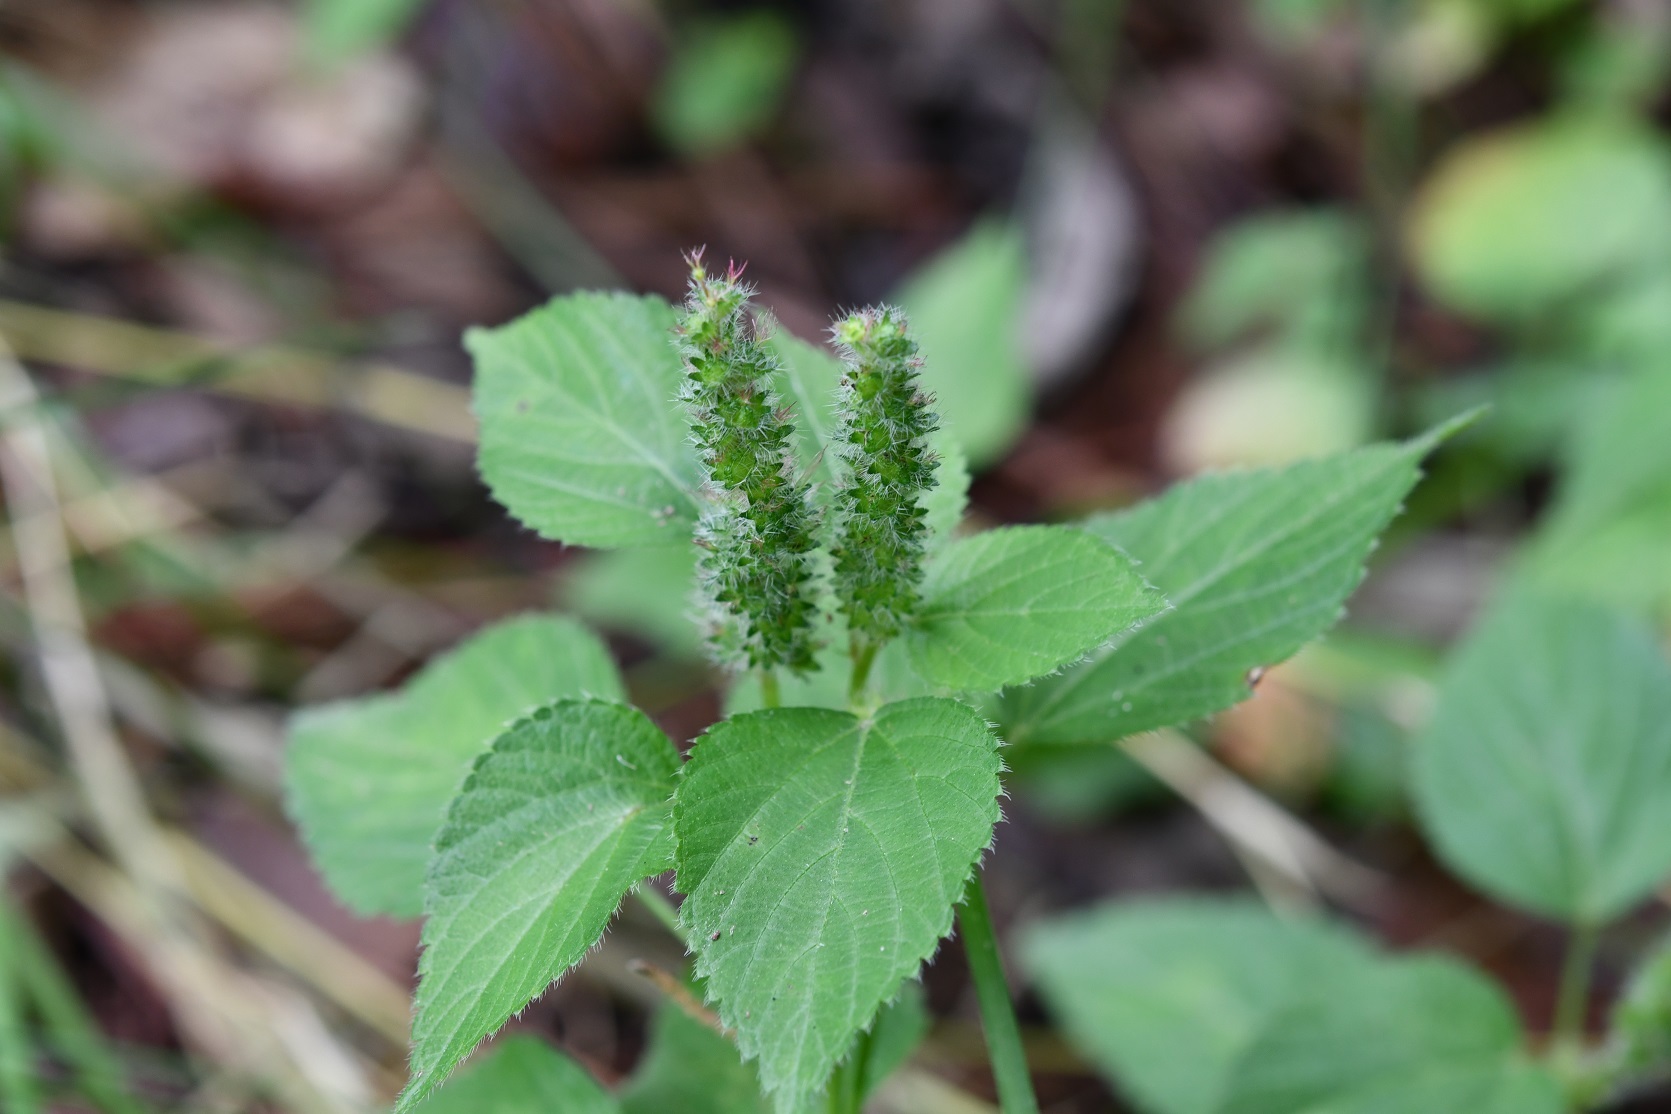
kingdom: Plantae
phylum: Tracheophyta
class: Magnoliopsida
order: Malpighiales
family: Euphorbiaceae
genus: Acalypha
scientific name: Acalypha phleoides
